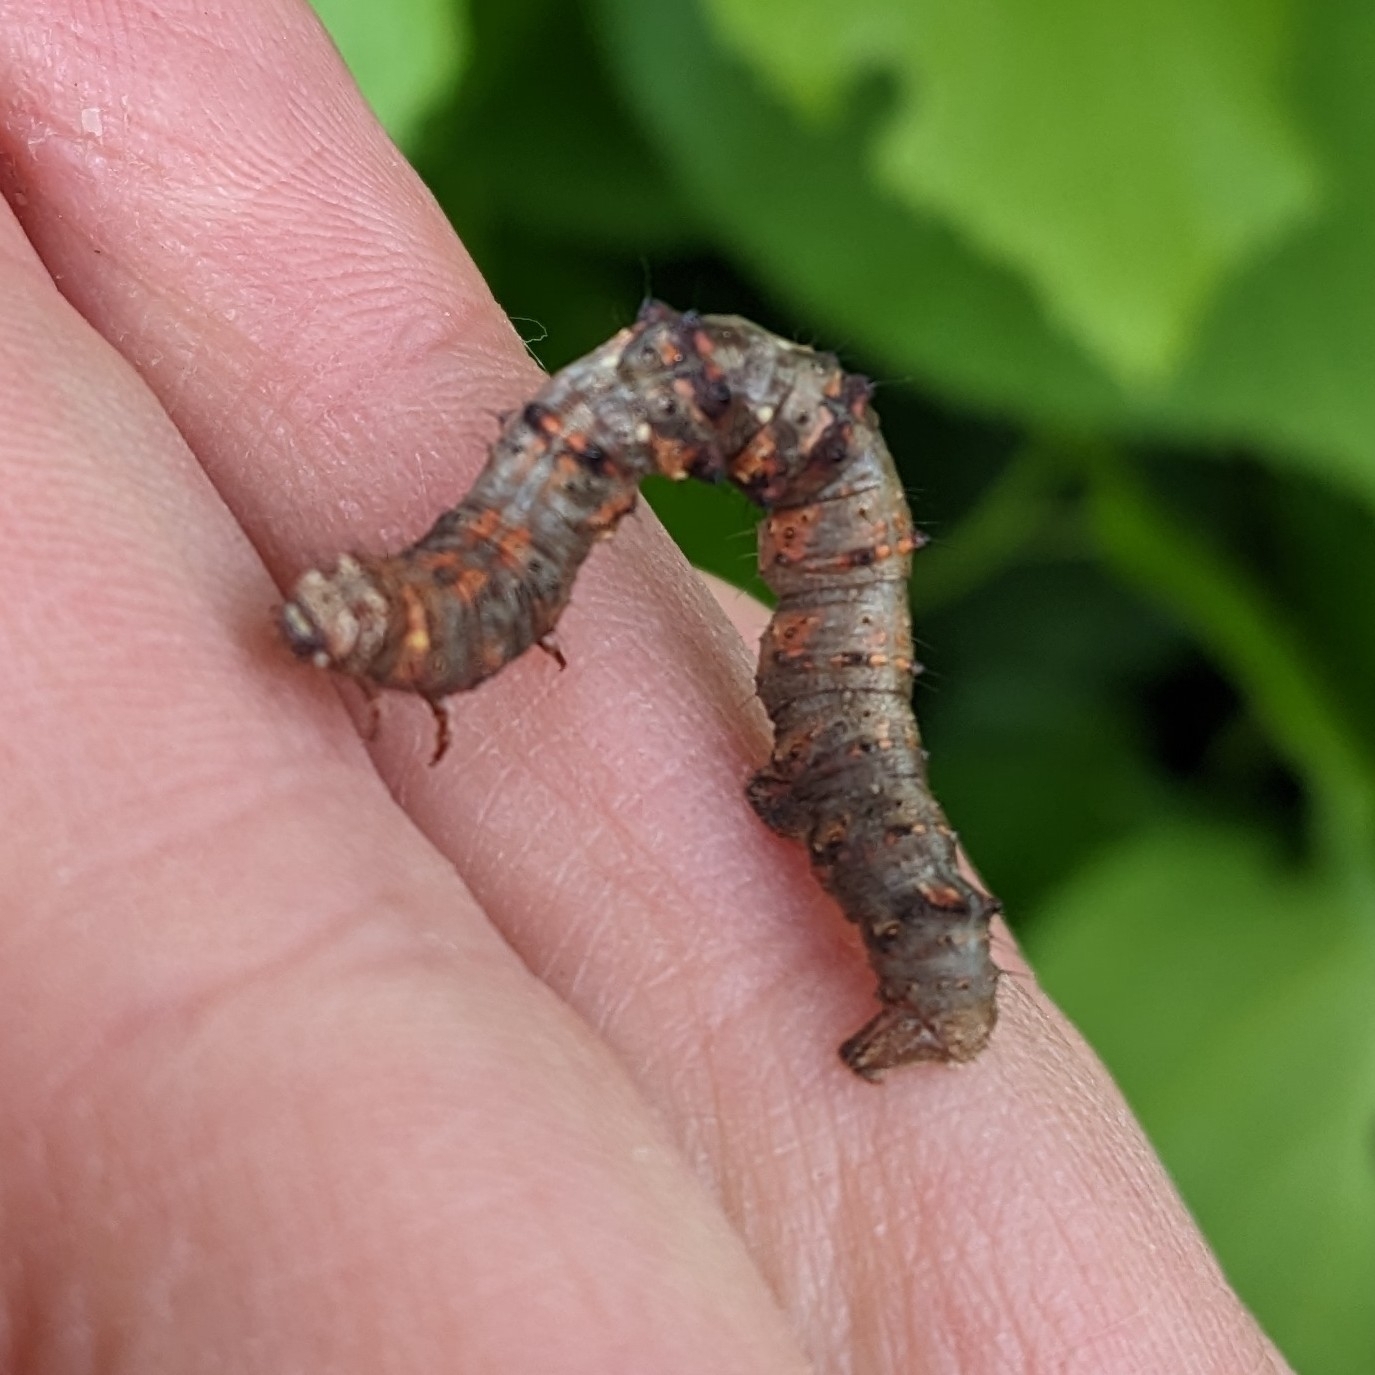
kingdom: Animalia
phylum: Arthropoda
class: Insecta
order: Lepidoptera
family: Geometridae
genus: Phigalia
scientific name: Phigalia pilosaria
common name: Pale brindled beauty
